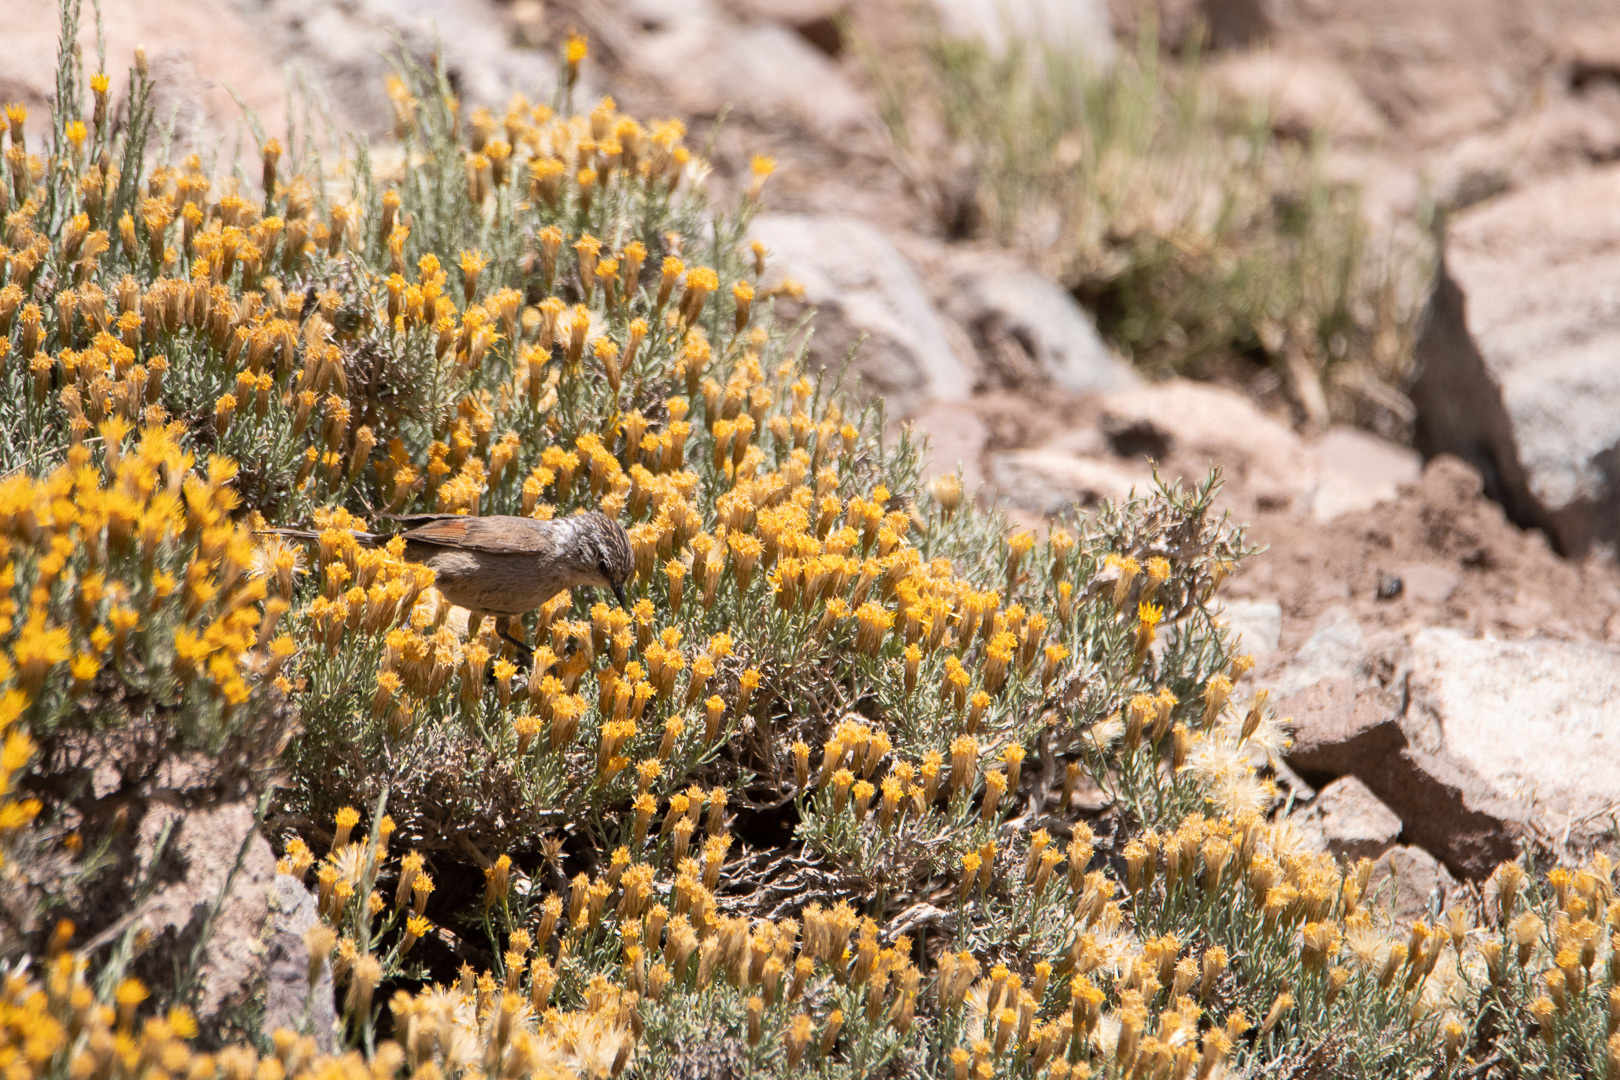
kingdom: Animalia
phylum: Chordata
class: Aves
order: Passeriformes
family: Furnariidae
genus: Leptasthenura
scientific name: Leptasthenura aegithaloides
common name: Plain-mantled tit-spinetail
